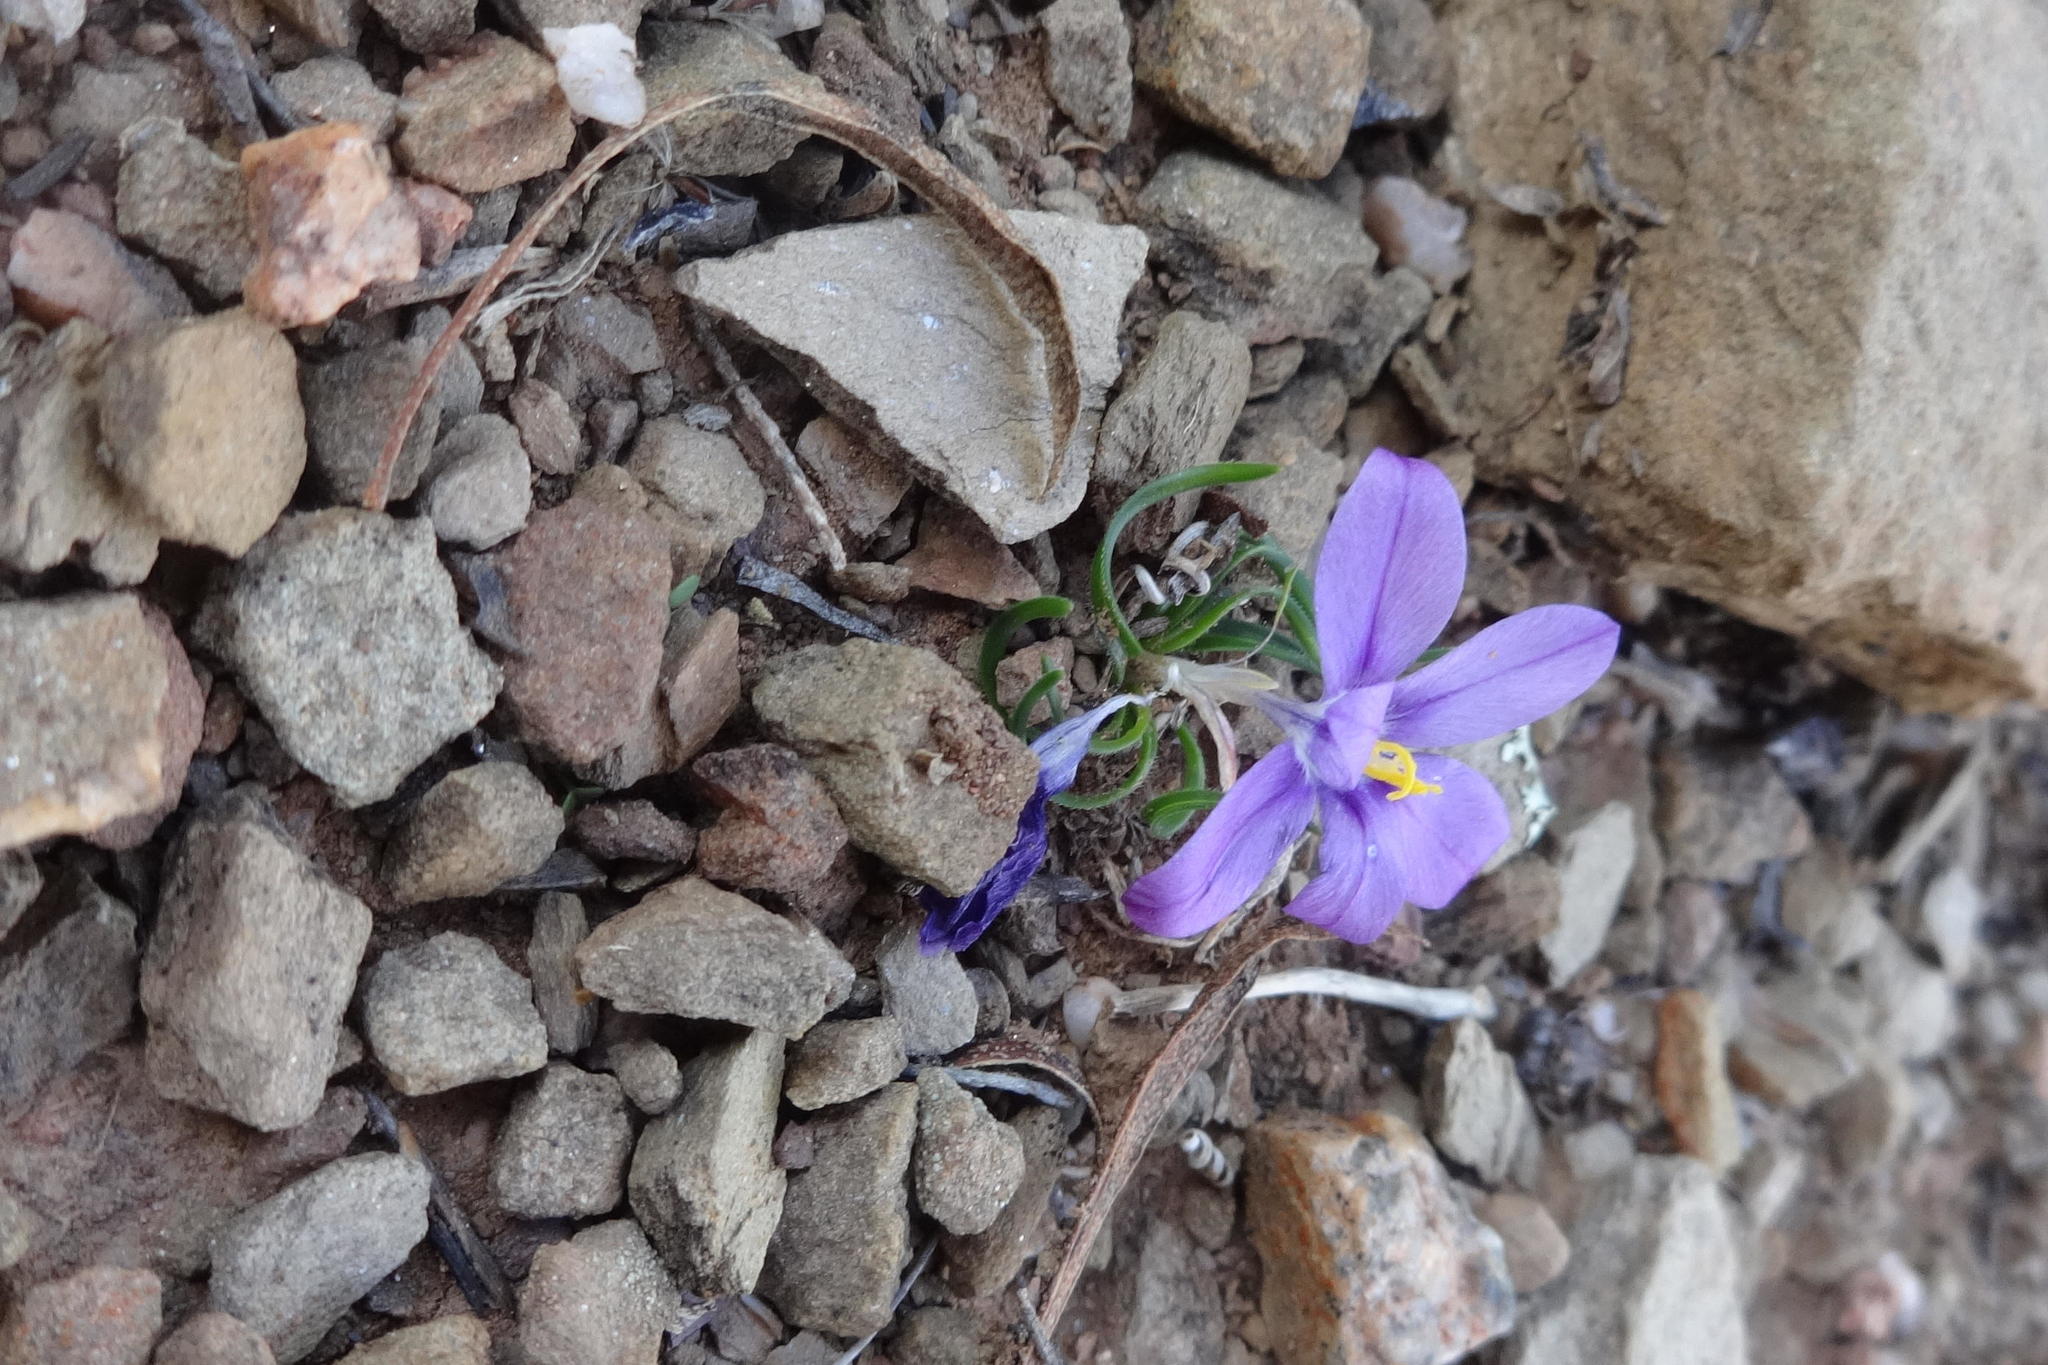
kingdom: Plantae
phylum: Tracheophyta
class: Liliopsida
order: Asparagales
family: Iridaceae
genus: Syringodea
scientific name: Syringodea longituba
